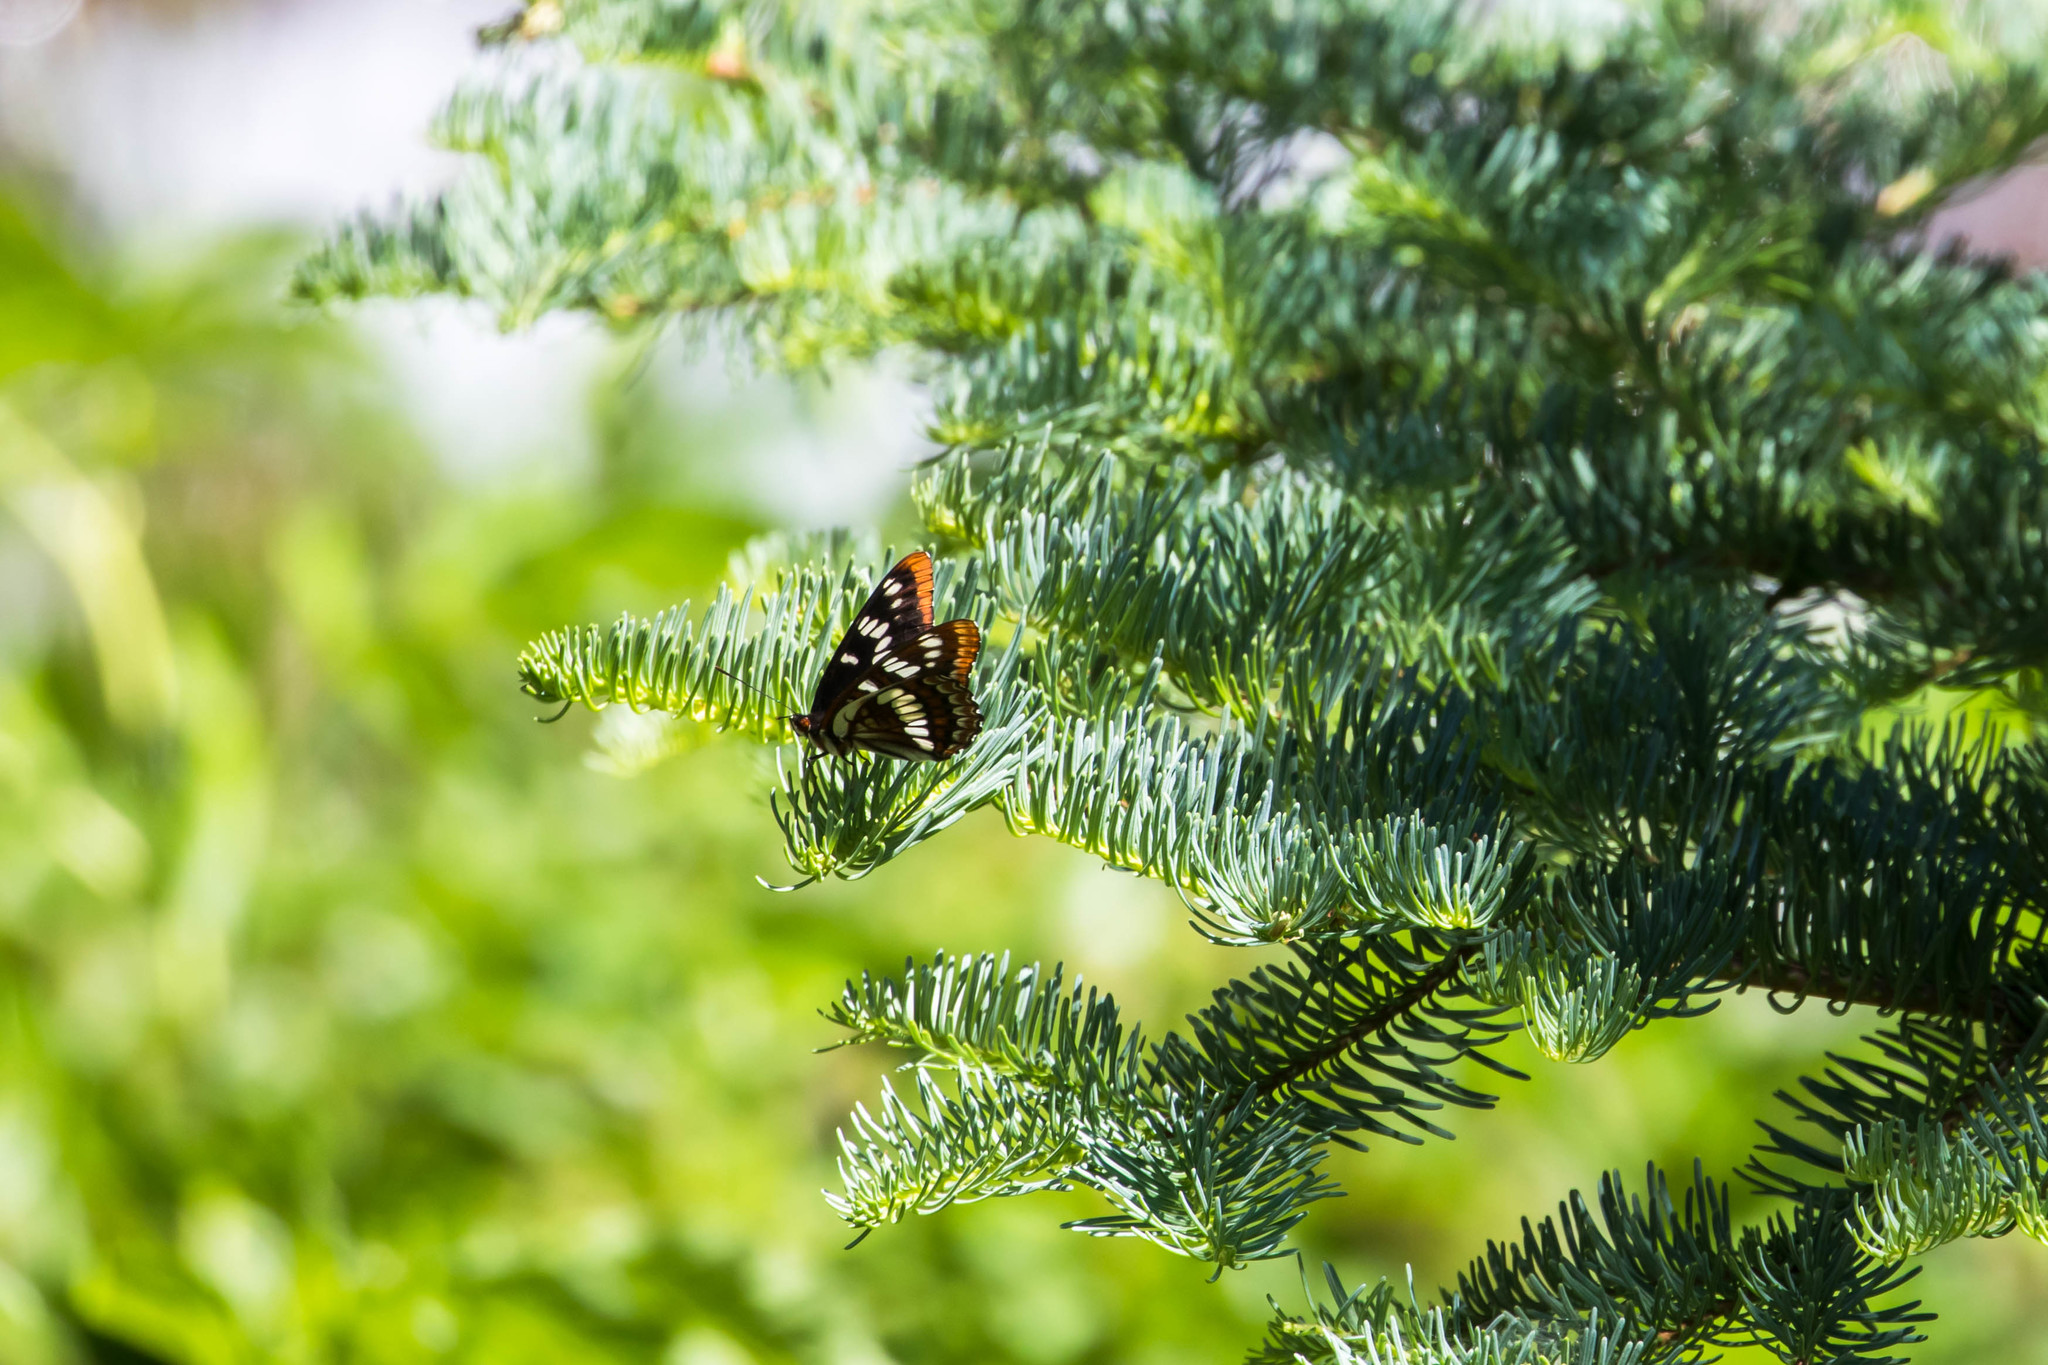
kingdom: Animalia
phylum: Arthropoda
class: Insecta
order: Lepidoptera
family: Nymphalidae
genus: Limenitis
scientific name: Limenitis lorquini
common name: Lorquin's admiral
